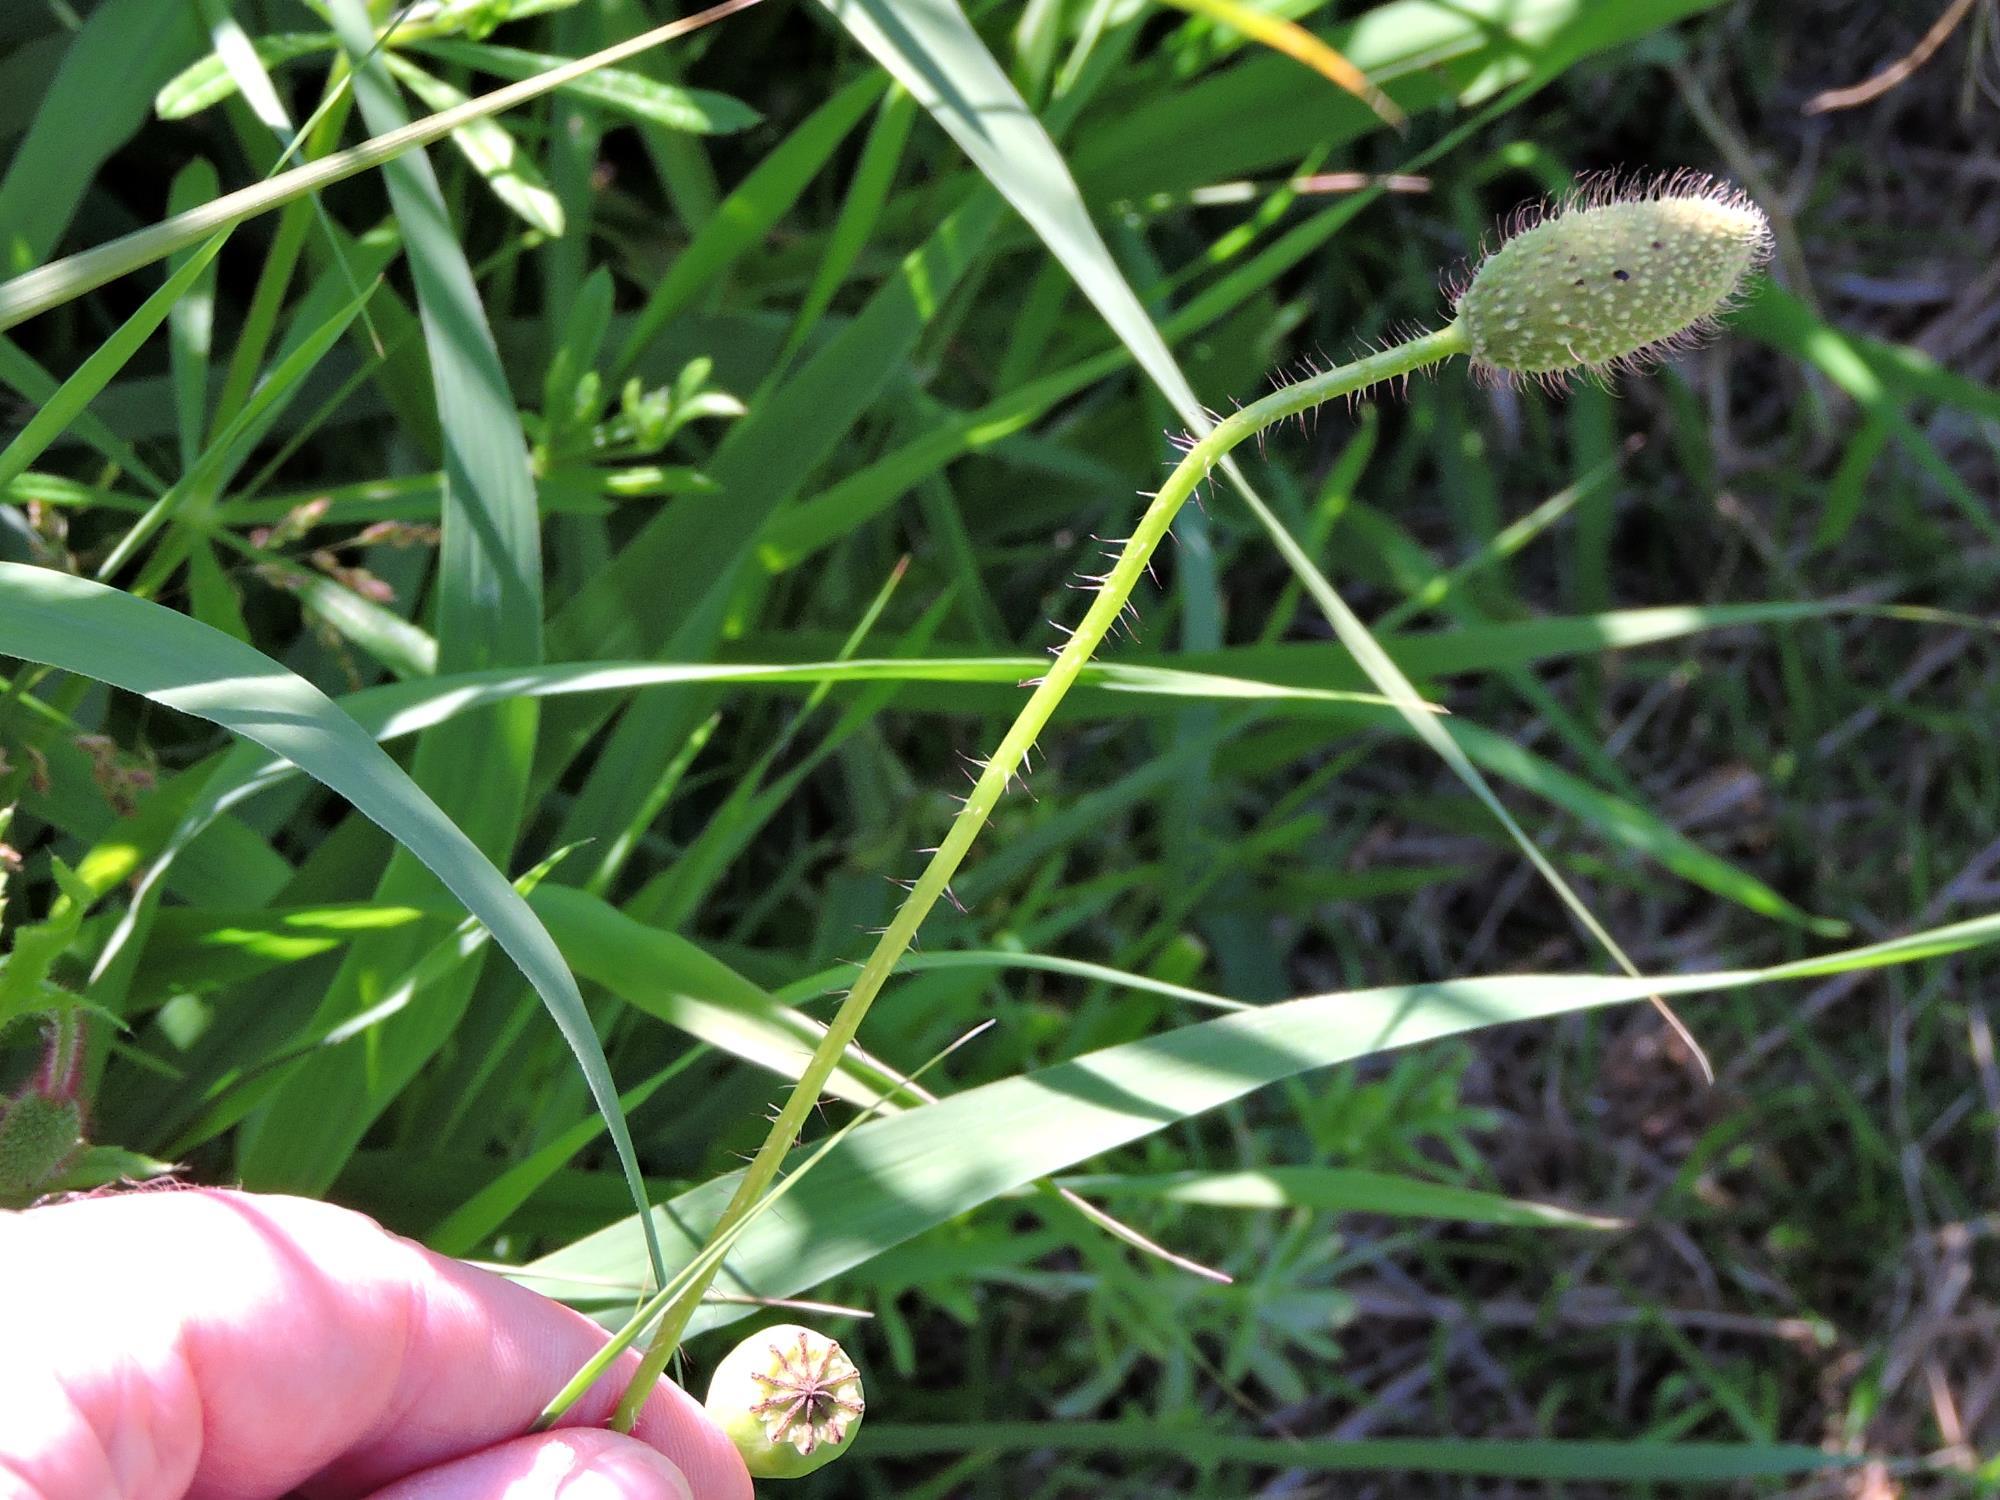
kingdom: Plantae
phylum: Tracheophyta
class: Magnoliopsida
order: Ranunculales
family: Papaveraceae
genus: Papaver
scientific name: Papaver rhoeas
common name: Corn poppy
